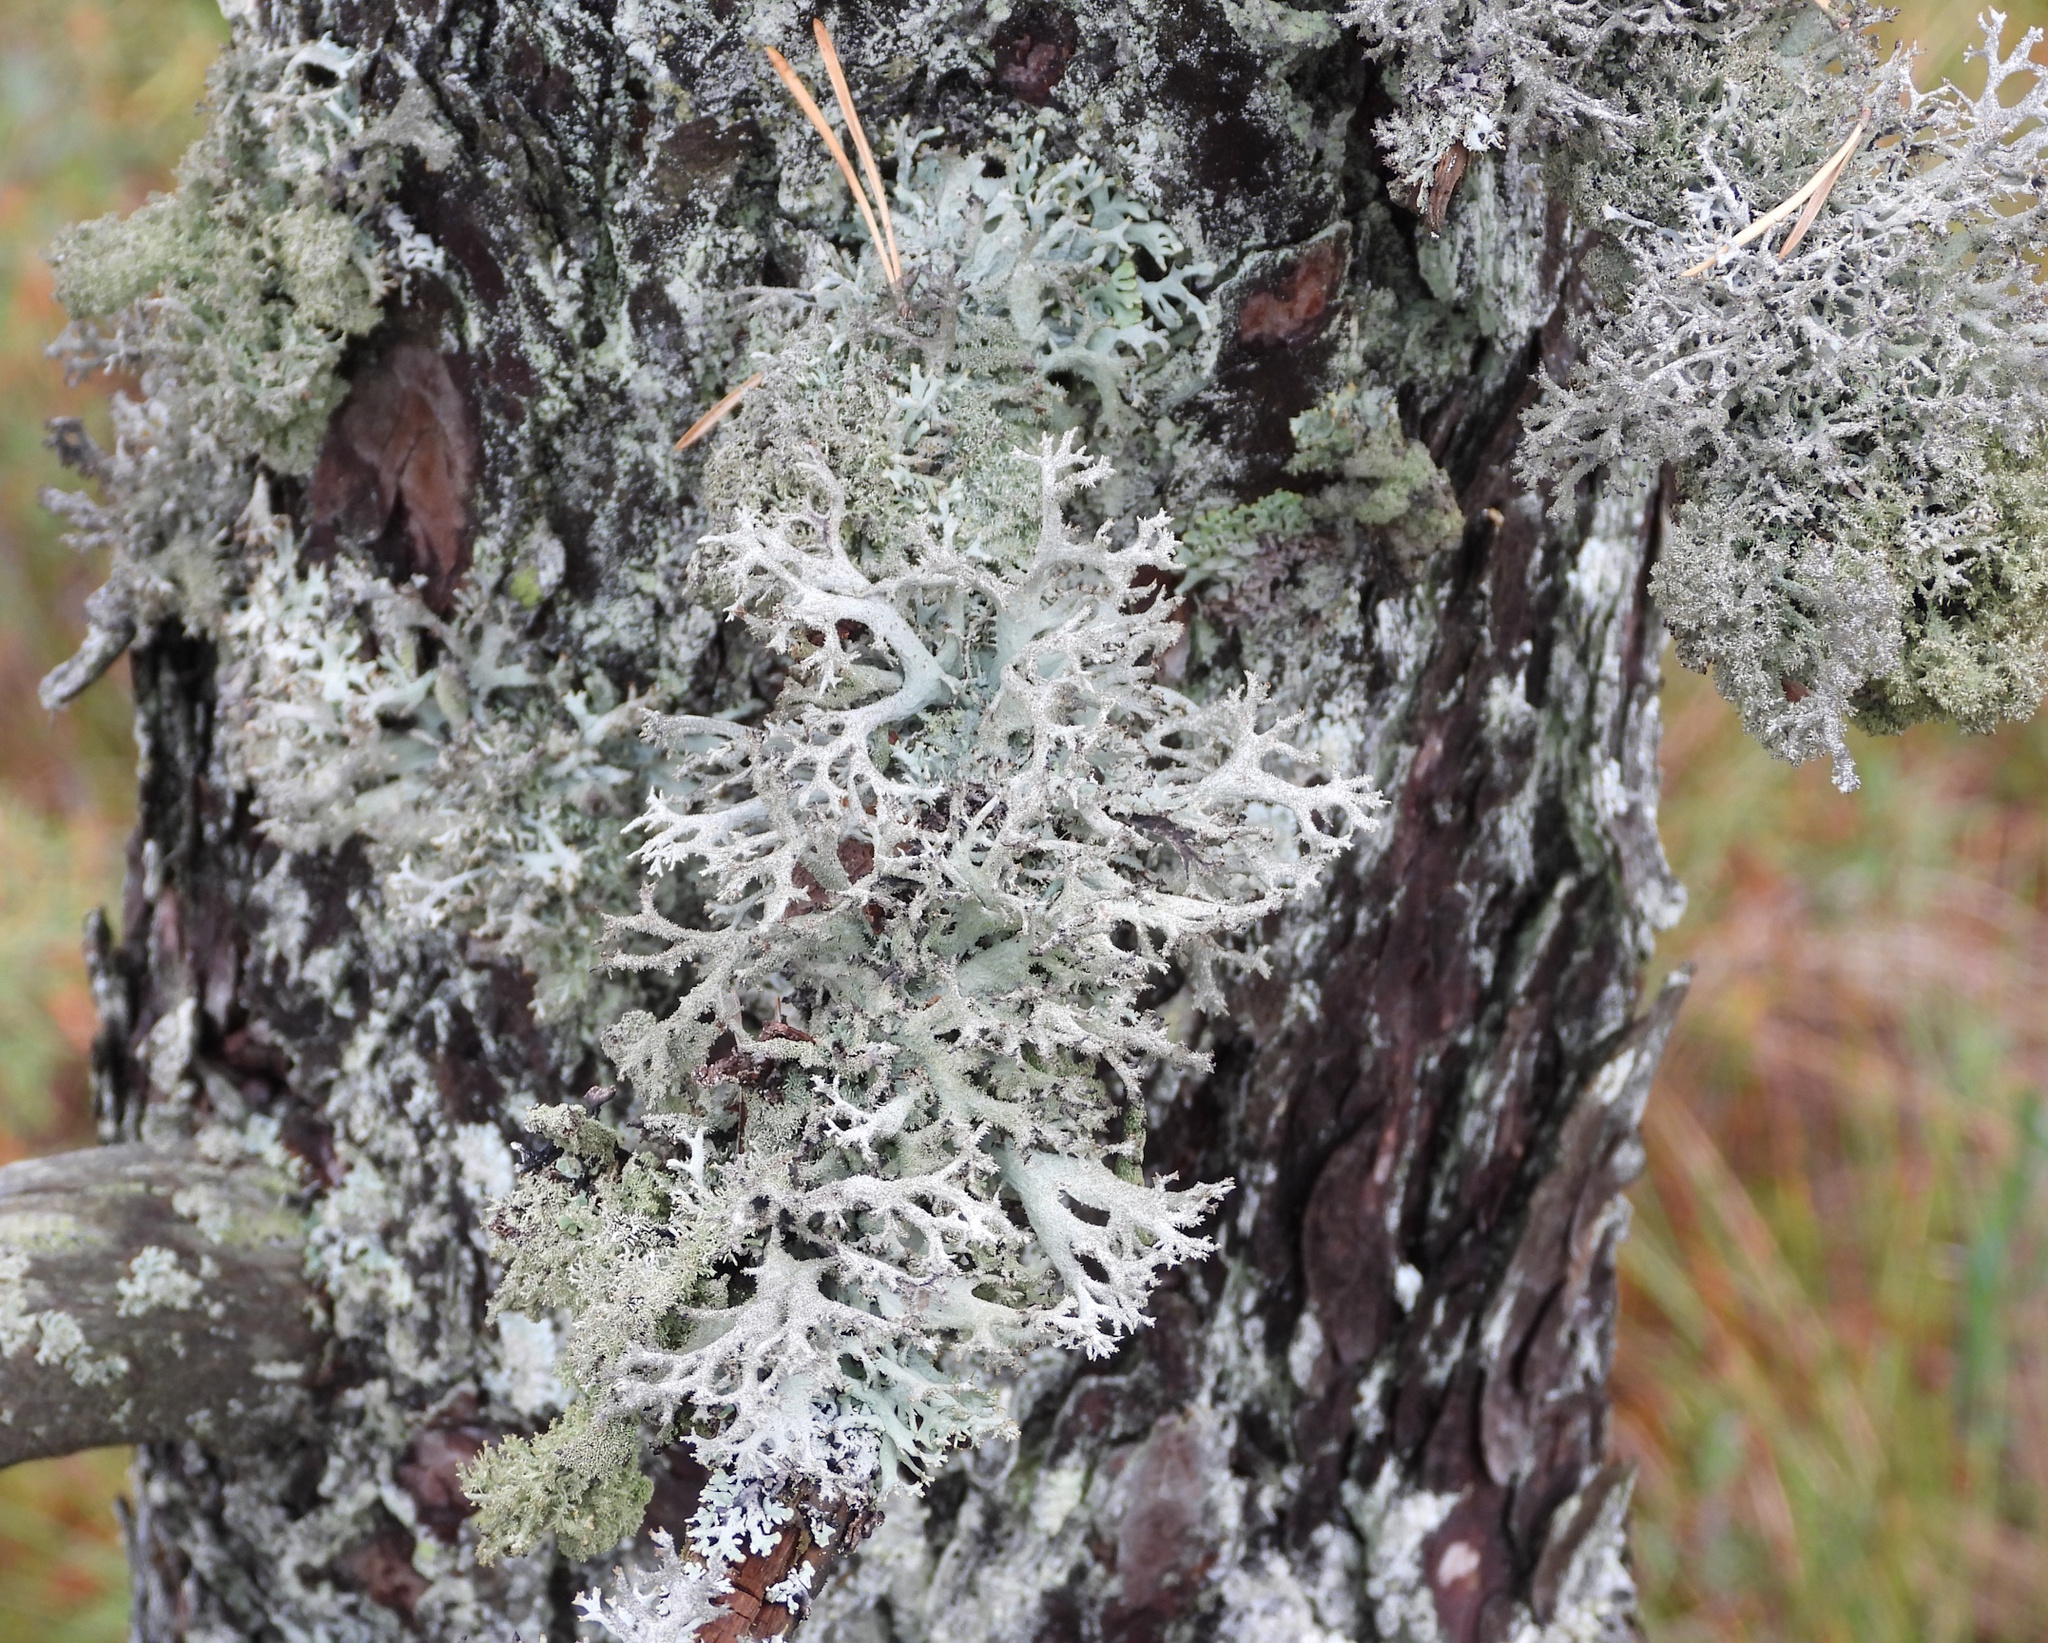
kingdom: Fungi
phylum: Ascomycota
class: Lecanoromycetes
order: Lecanorales
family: Parmeliaceae
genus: Pseudevernia
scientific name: Pseudevernia furfuracea
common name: Tree moss
